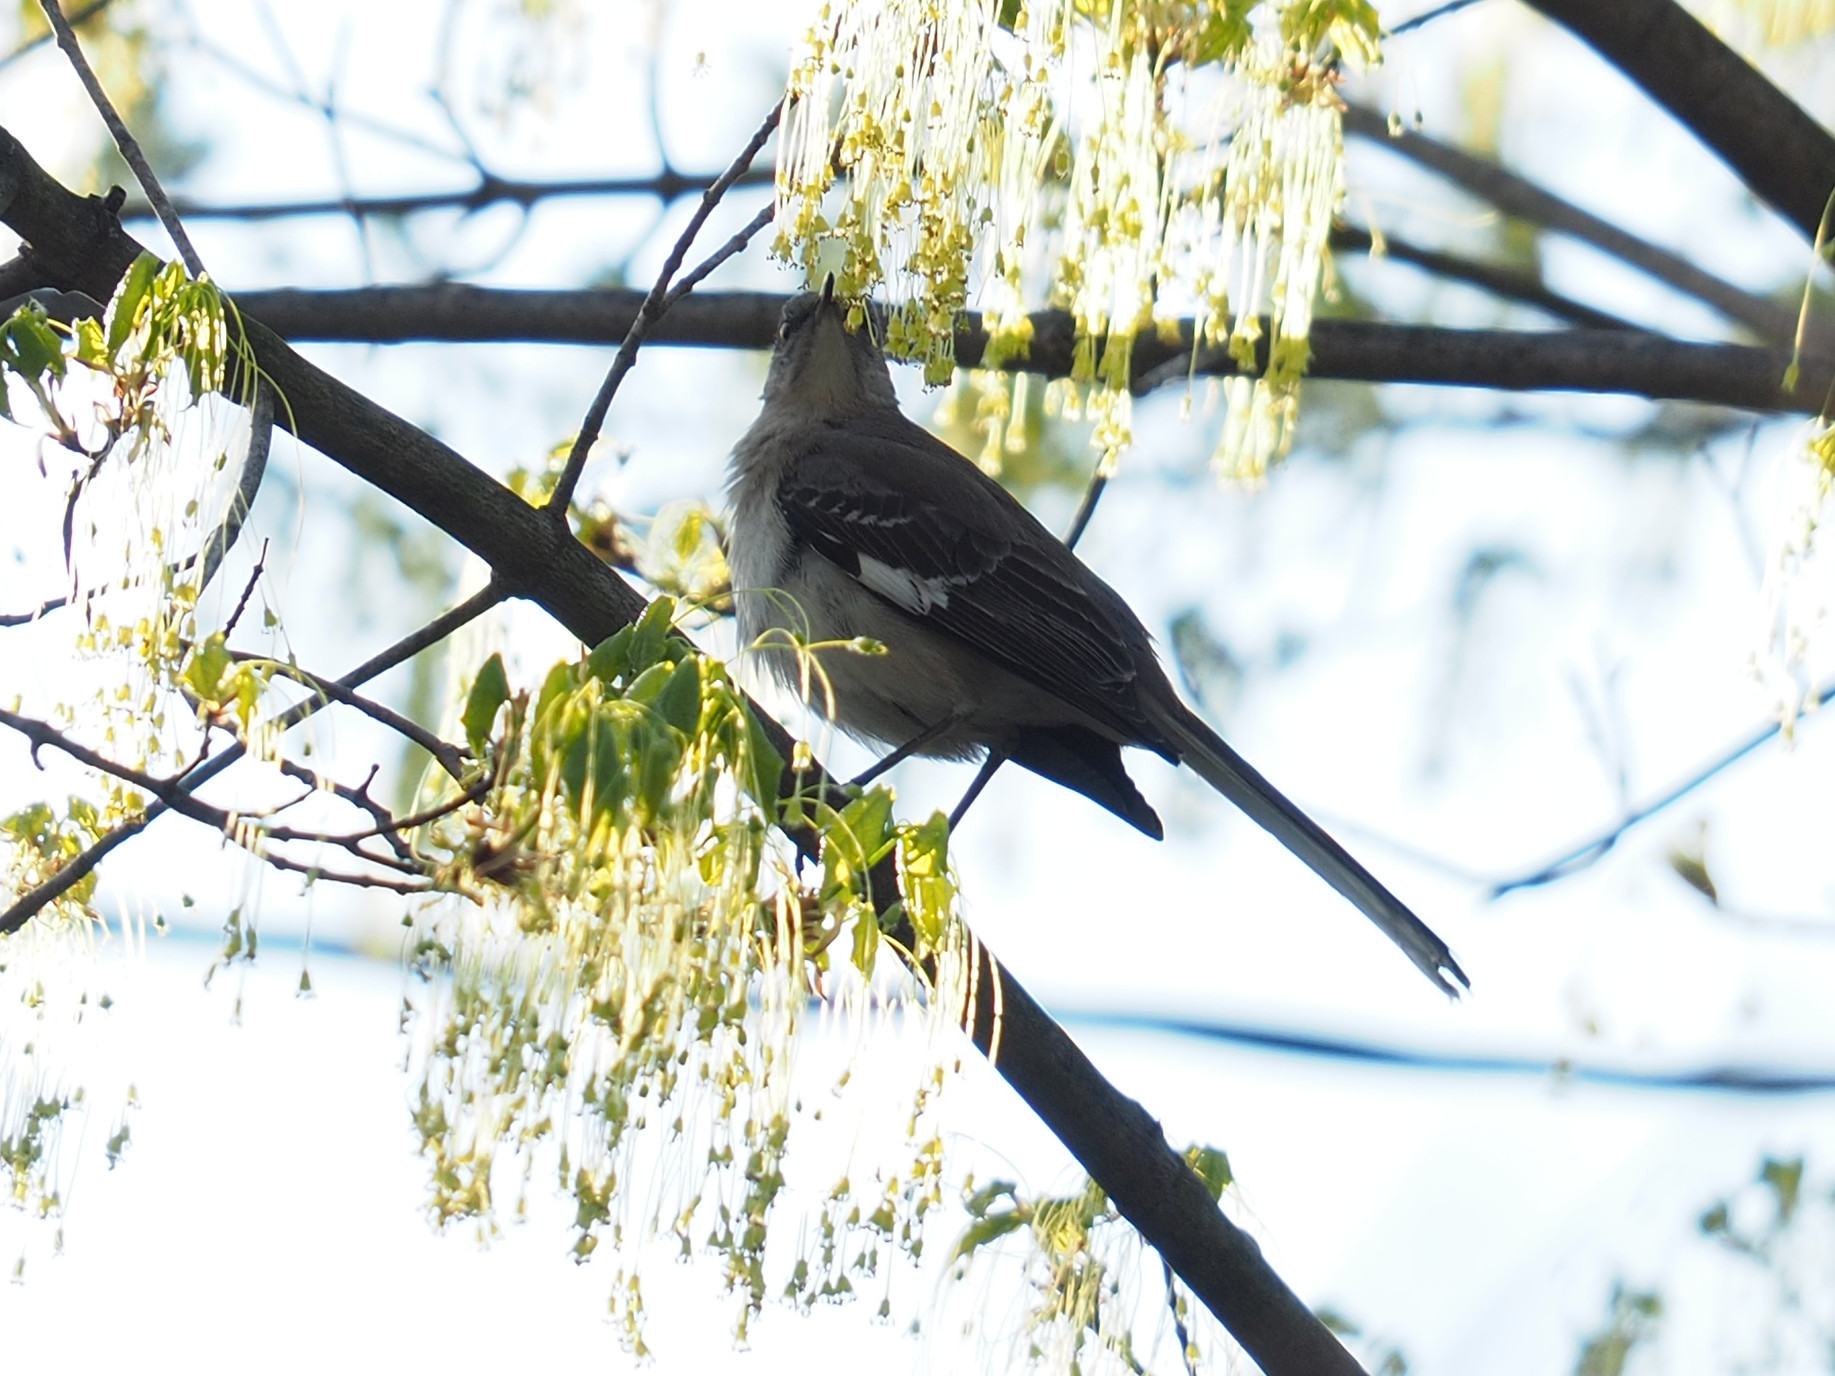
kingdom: Animalia
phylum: Chordata
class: Aves
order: Passeriformes
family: Mimidae
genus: Mimus
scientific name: Mimus polyglottos
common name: Northern mockingbird
